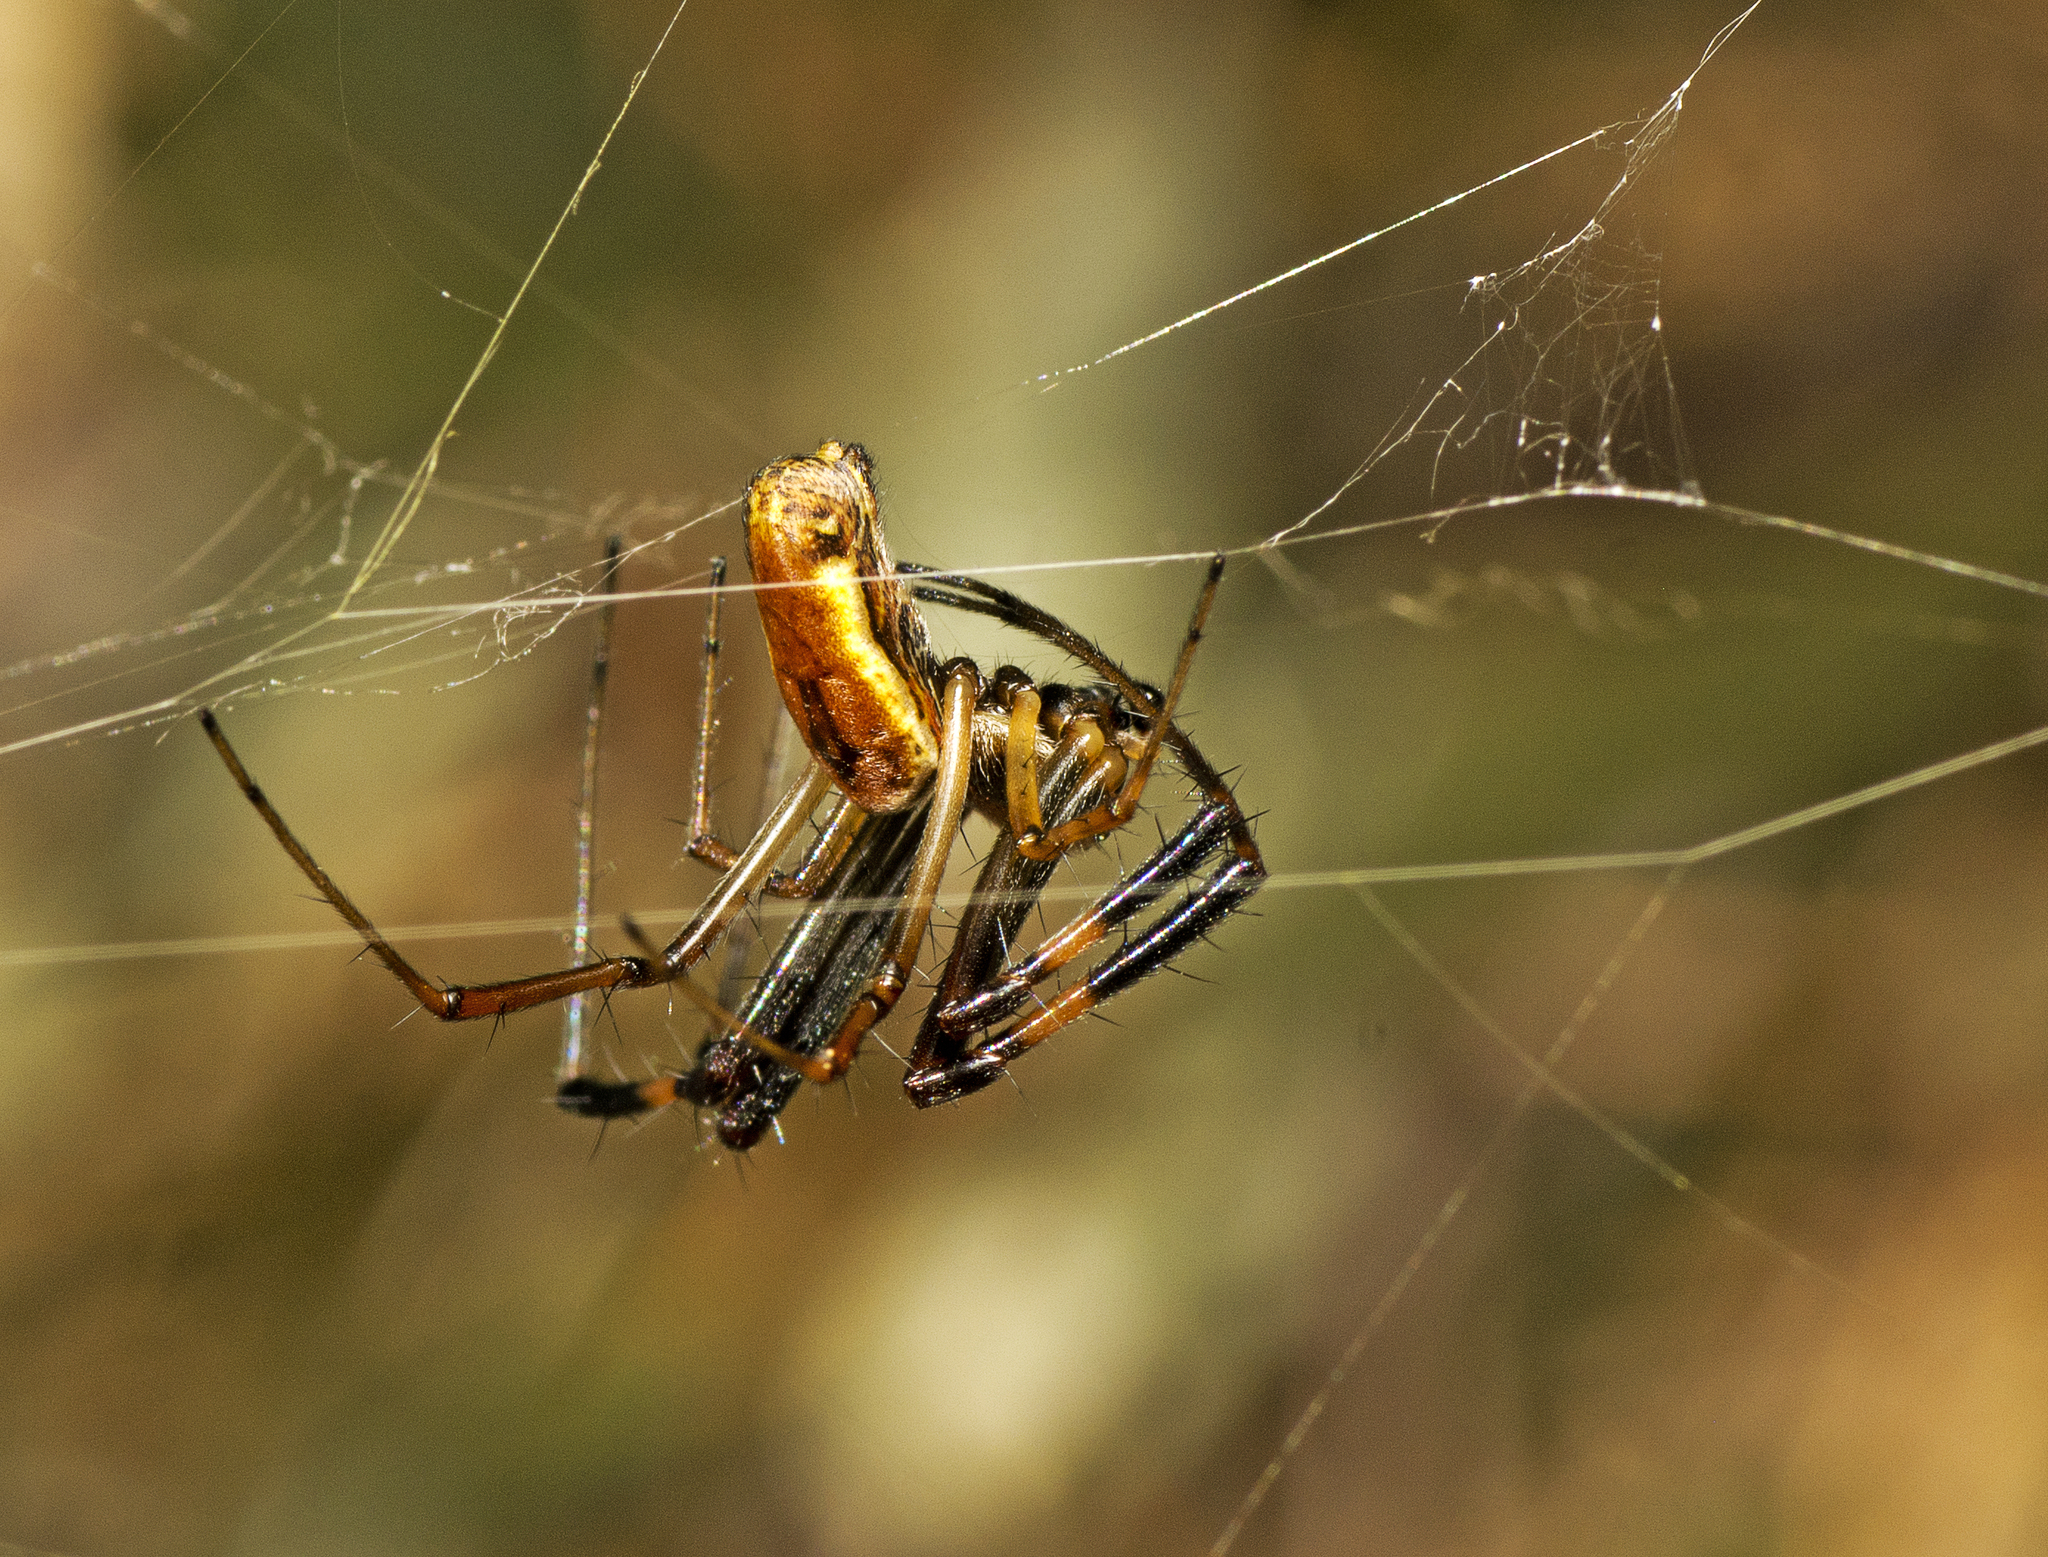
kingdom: Animalia
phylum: Arthropoda
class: Arachnida
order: Araneae
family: Araneidae
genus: Trichonephila
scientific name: Trichonephila edulis
